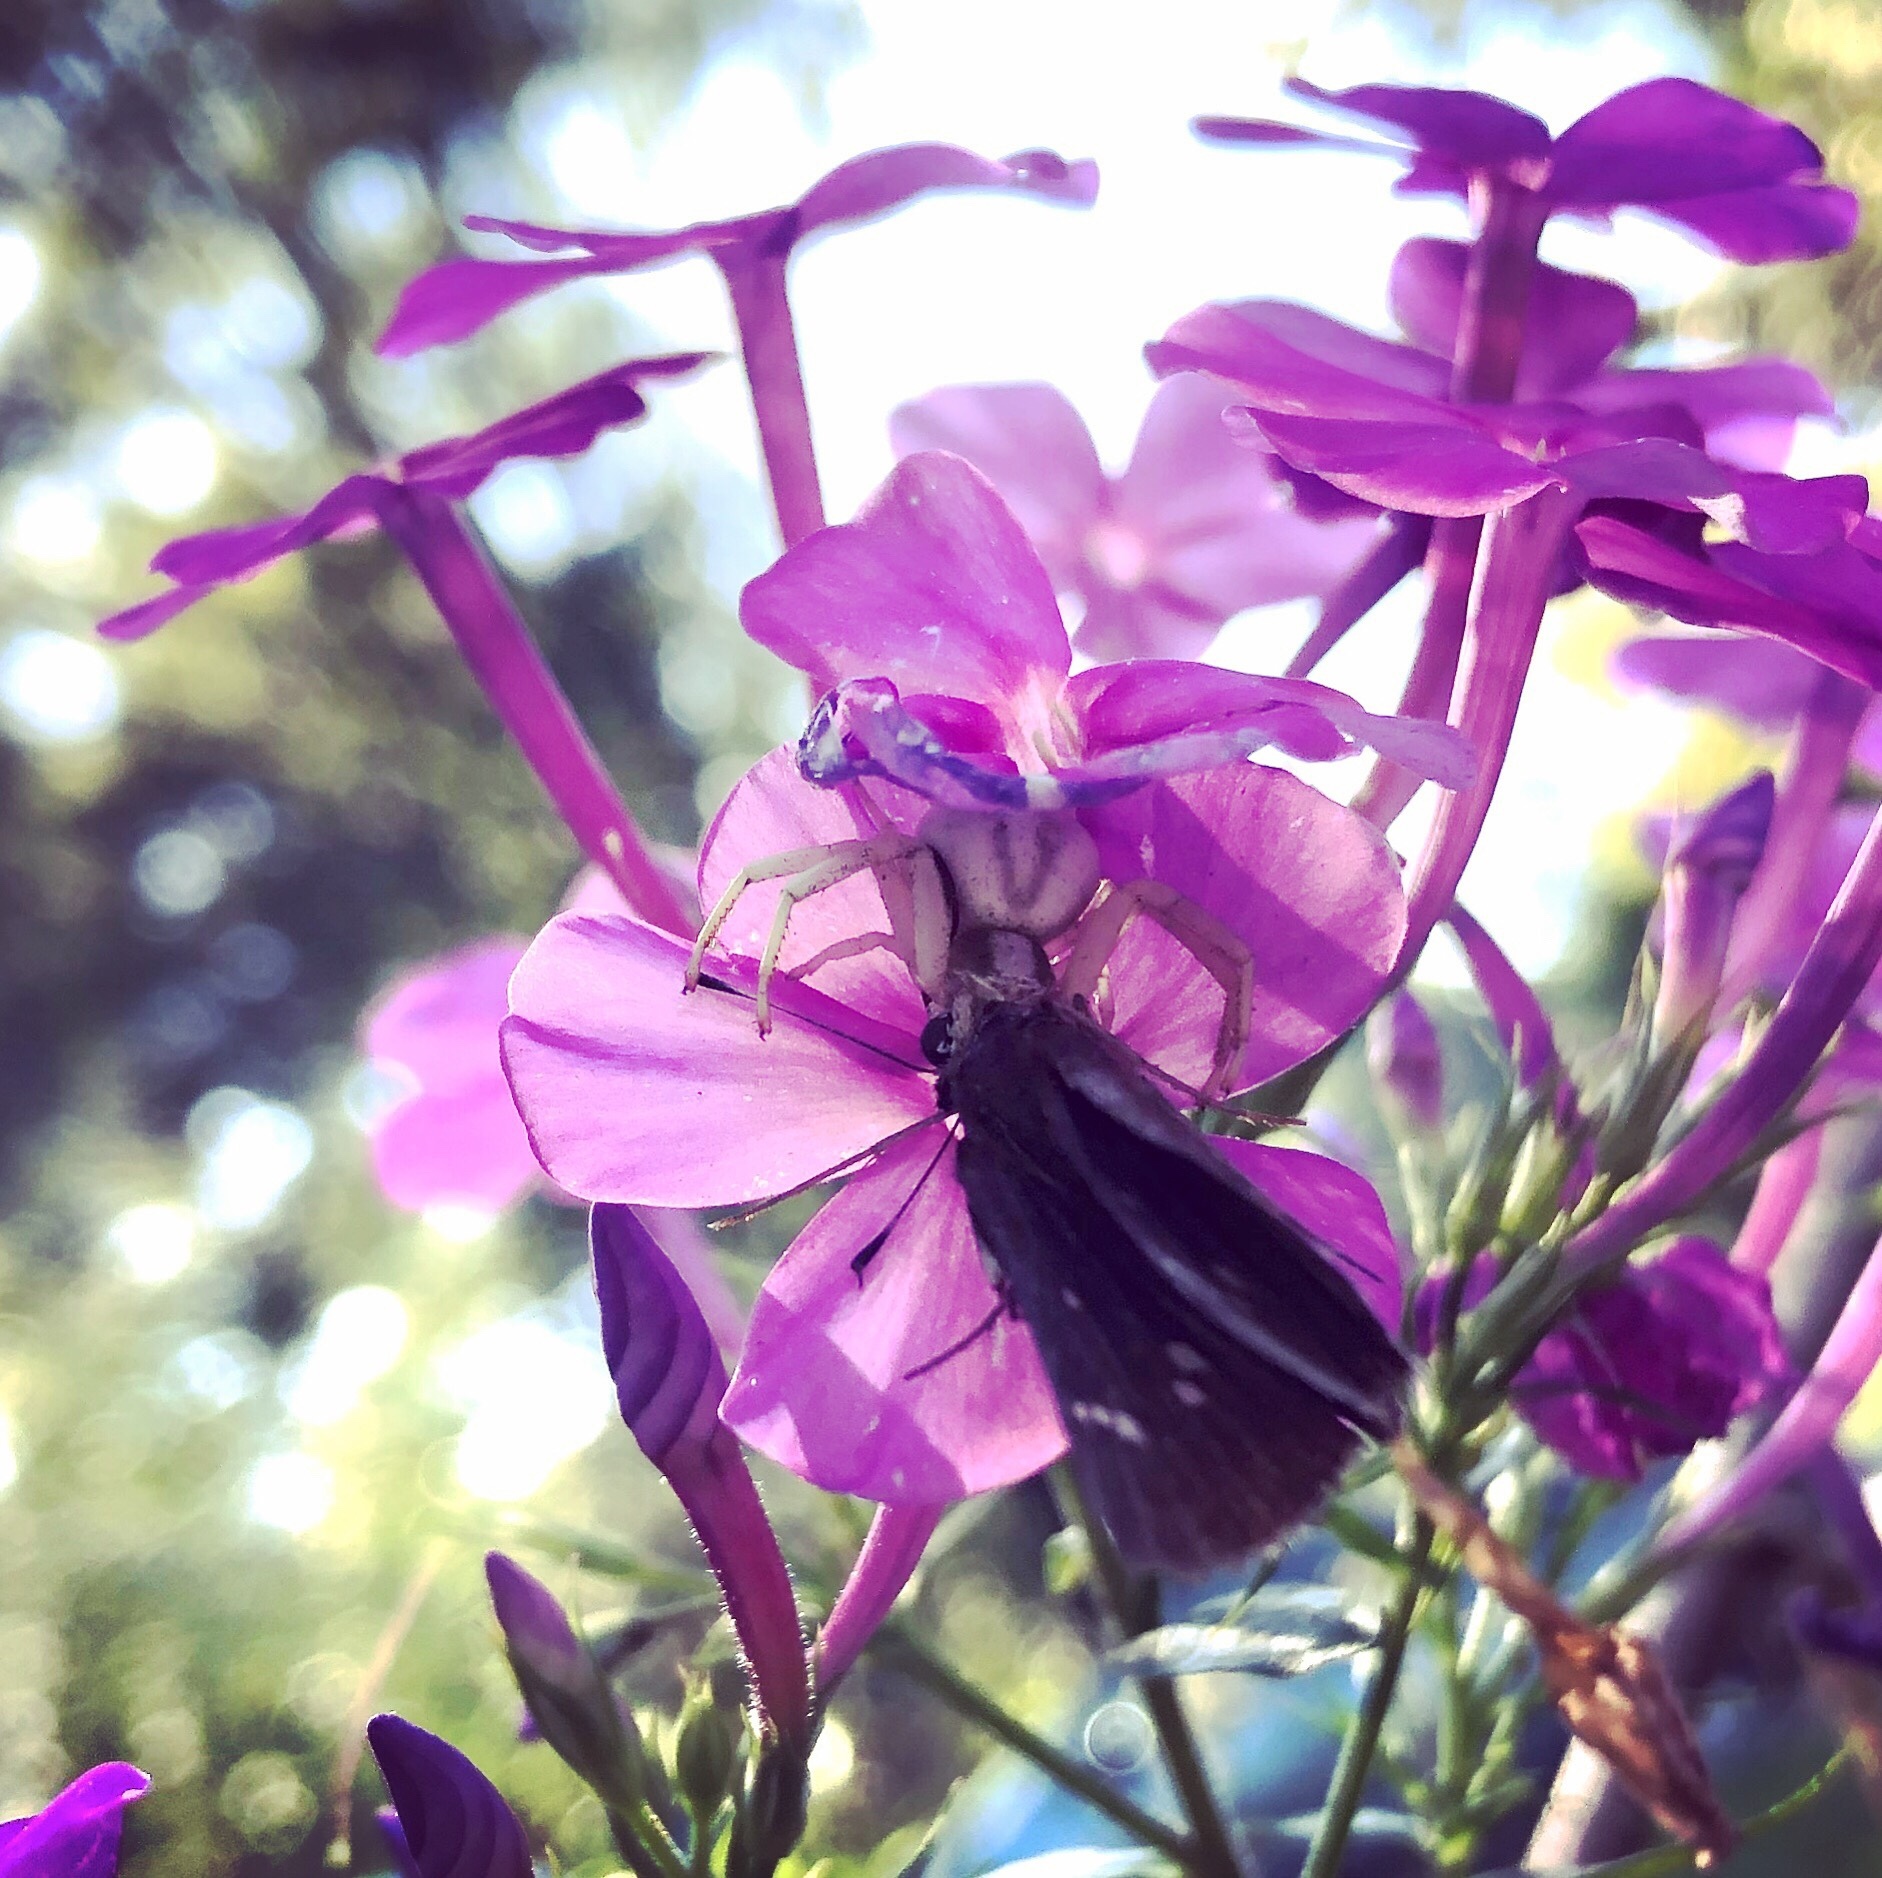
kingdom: Animalia
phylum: Arthropoda
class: Arachnida
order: Araneae
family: Thomisidae
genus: Misumenoides
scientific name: Misumenoides formosipes
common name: White-banded crab spider
